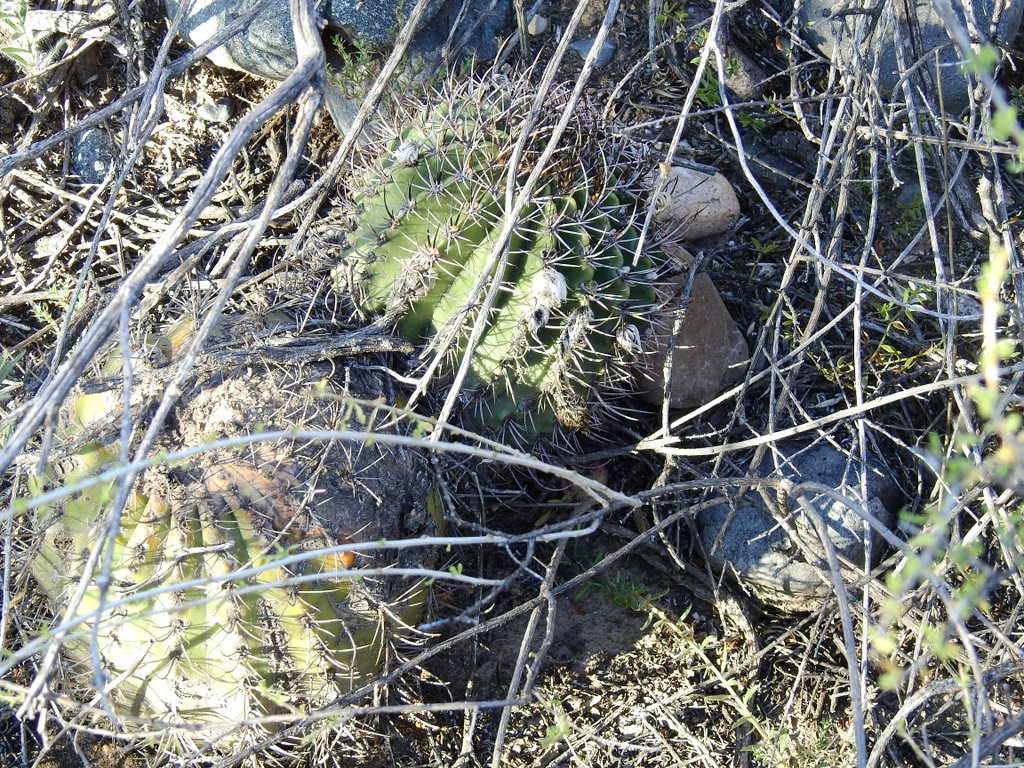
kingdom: Plantae
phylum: Tracheophyta
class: Magnoliopsida
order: Caryophyllales
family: Cactaceae
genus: Acanthocalycium
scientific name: Acanthocalycium leucanthum
